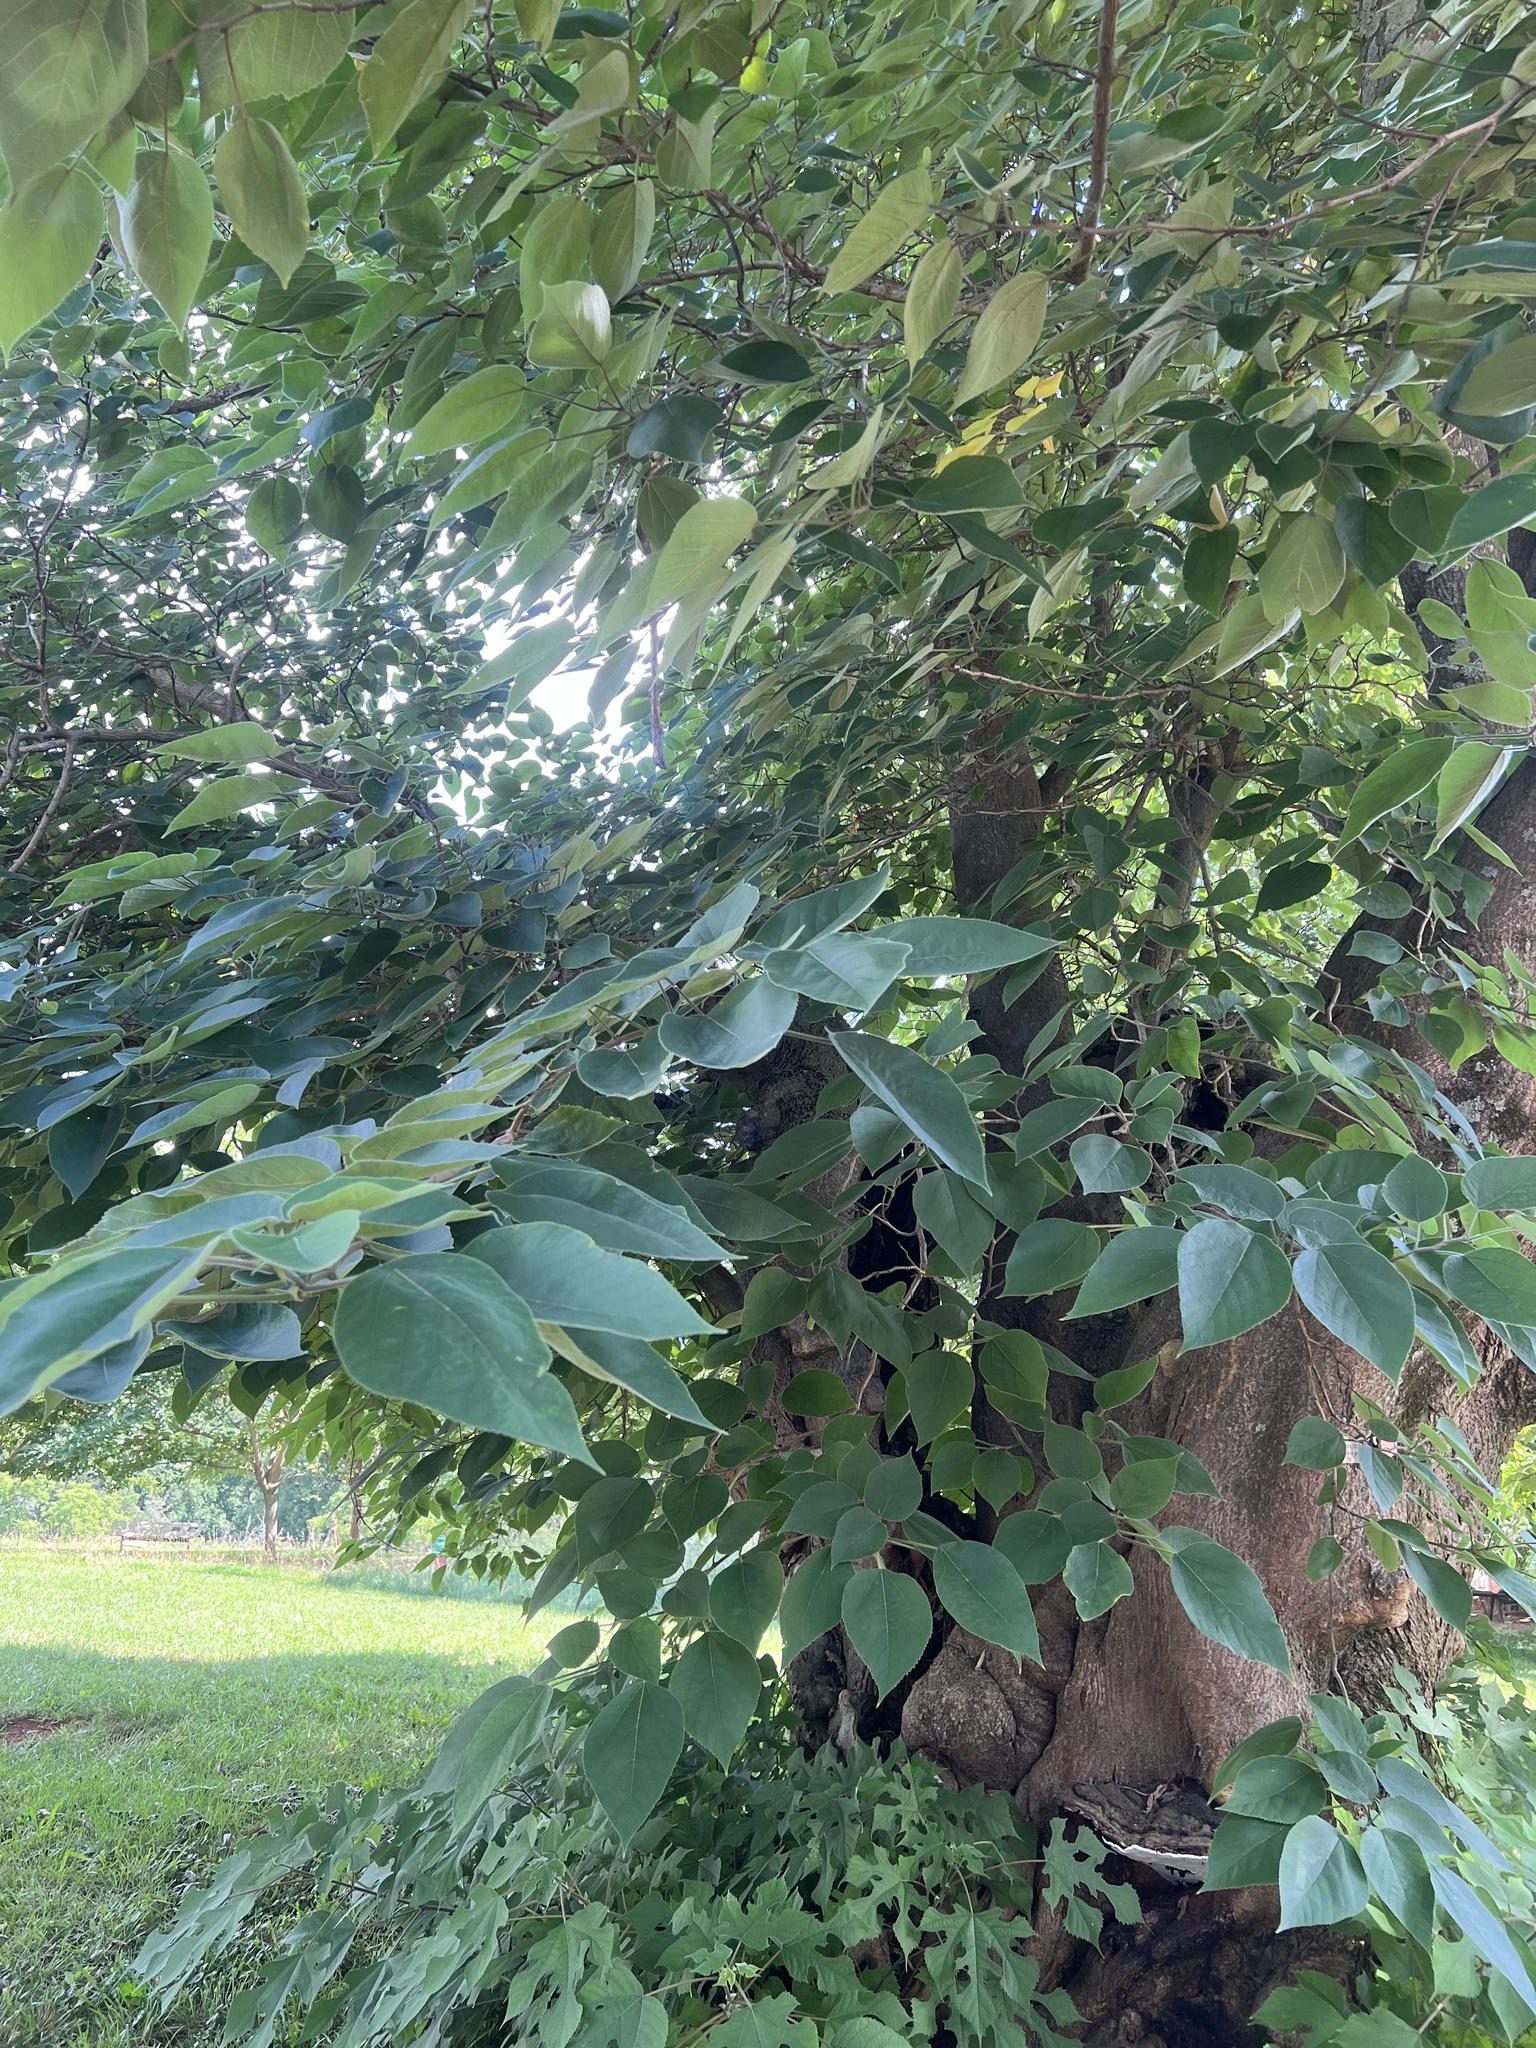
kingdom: Plantae
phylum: Tracheophyta
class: Magnoliopsida
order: Rosales
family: Moraceae
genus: Broussonetia
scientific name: Broussonetia papyrifera
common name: Paper mulberry
